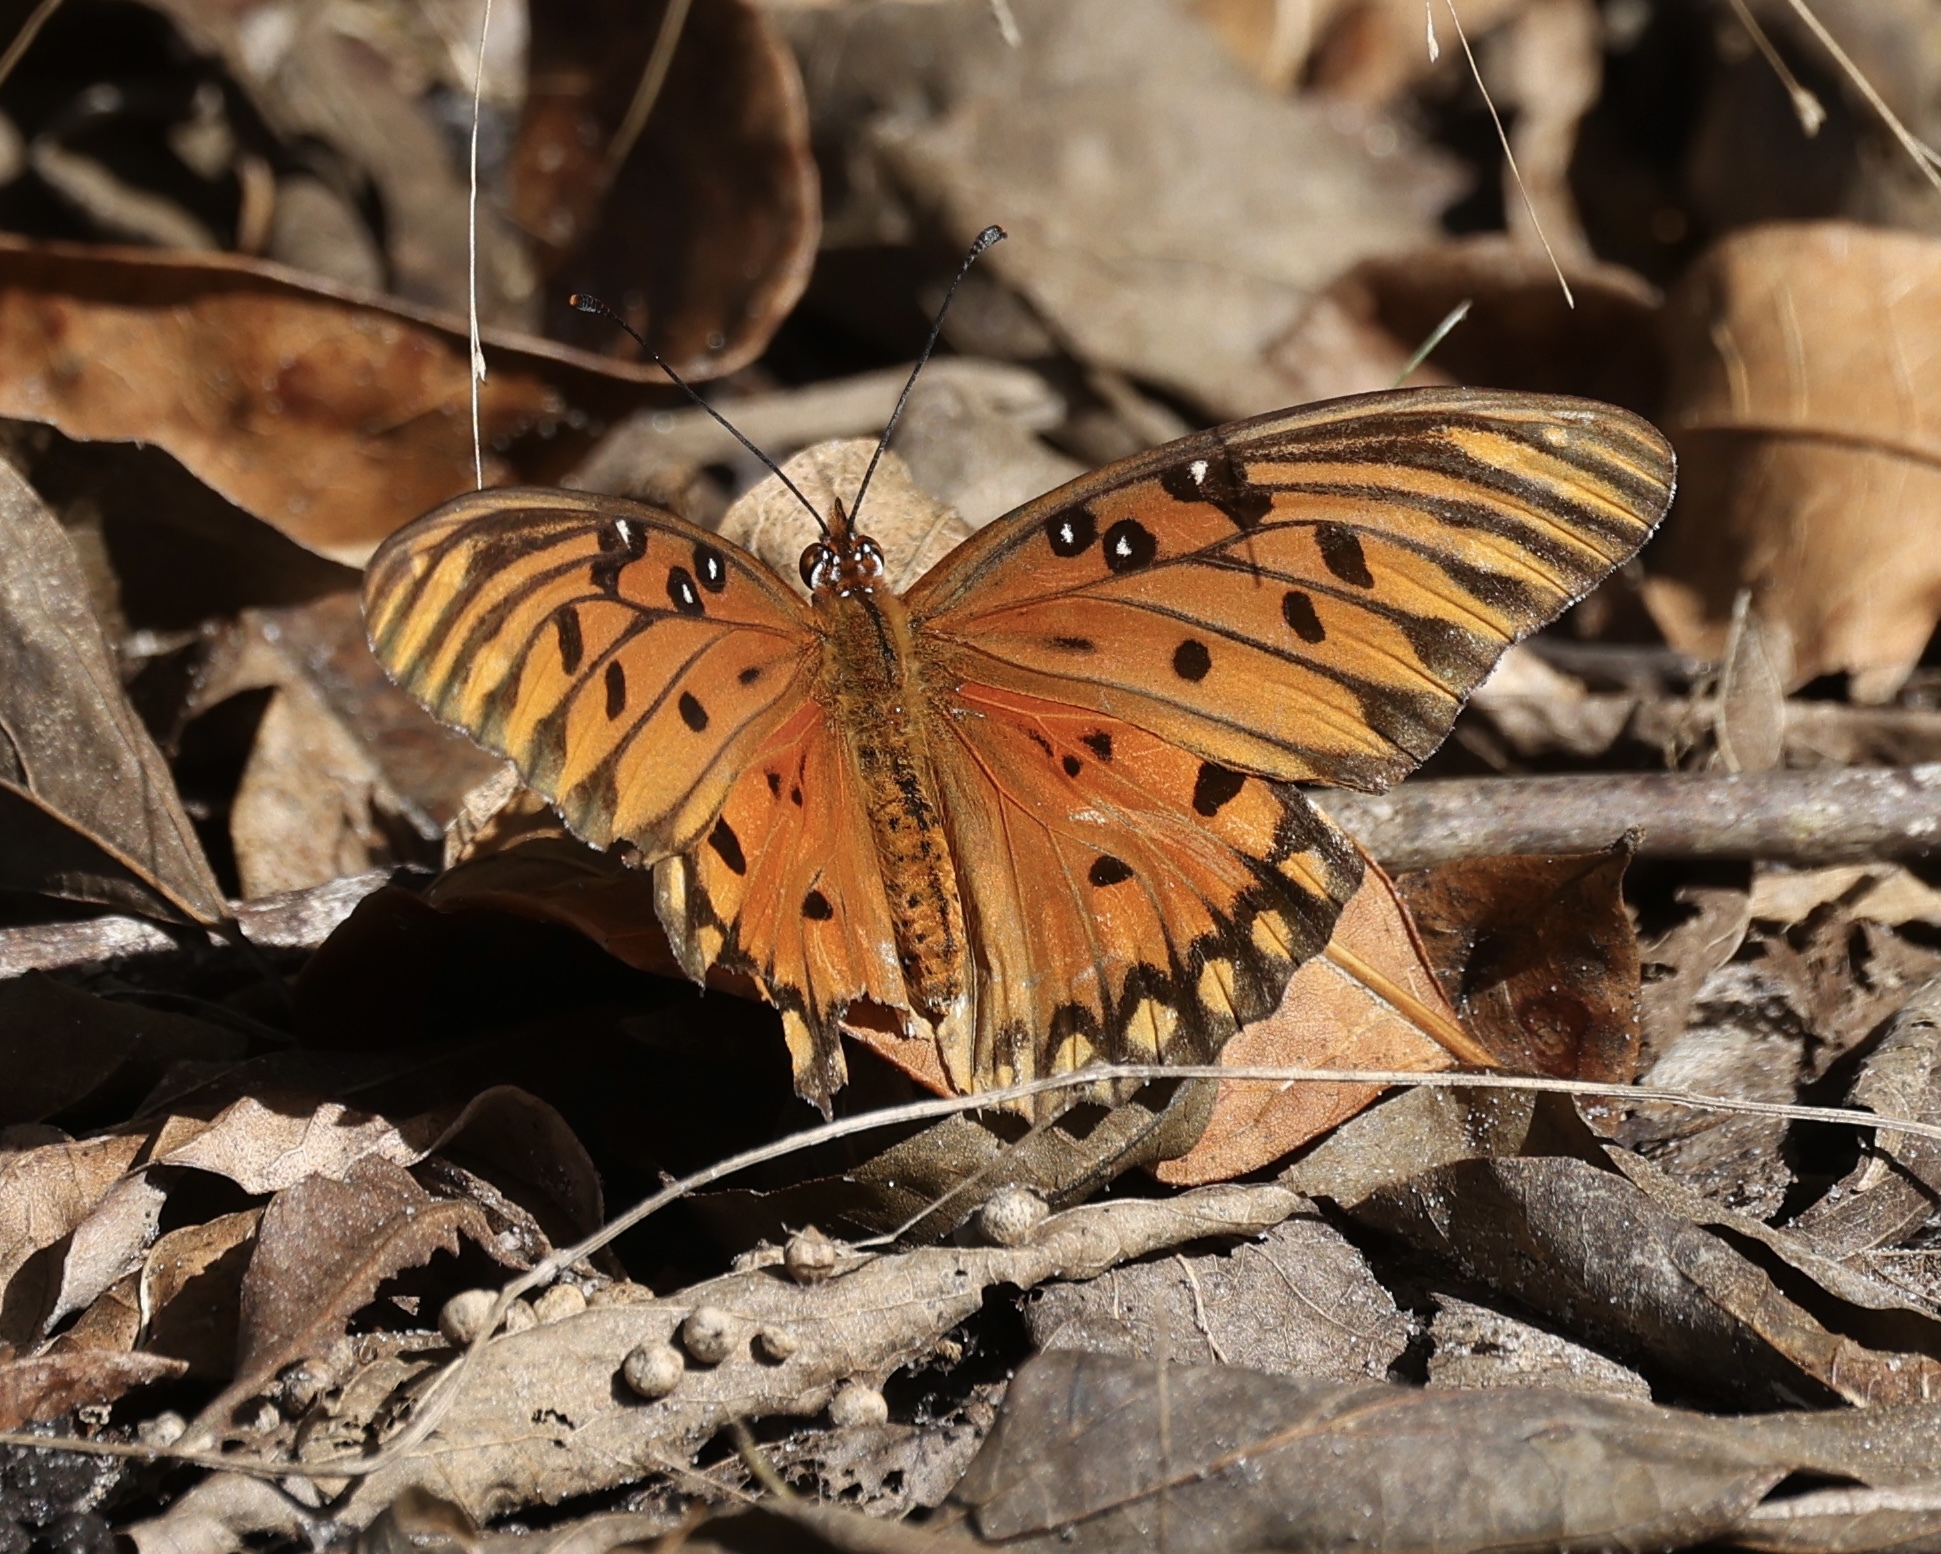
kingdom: Animalia
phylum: Arthropoda
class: Insecta
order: Lepidoptera
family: Nymphalidae
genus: Dione
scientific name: Dione vanillae
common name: Gulf fritillary
